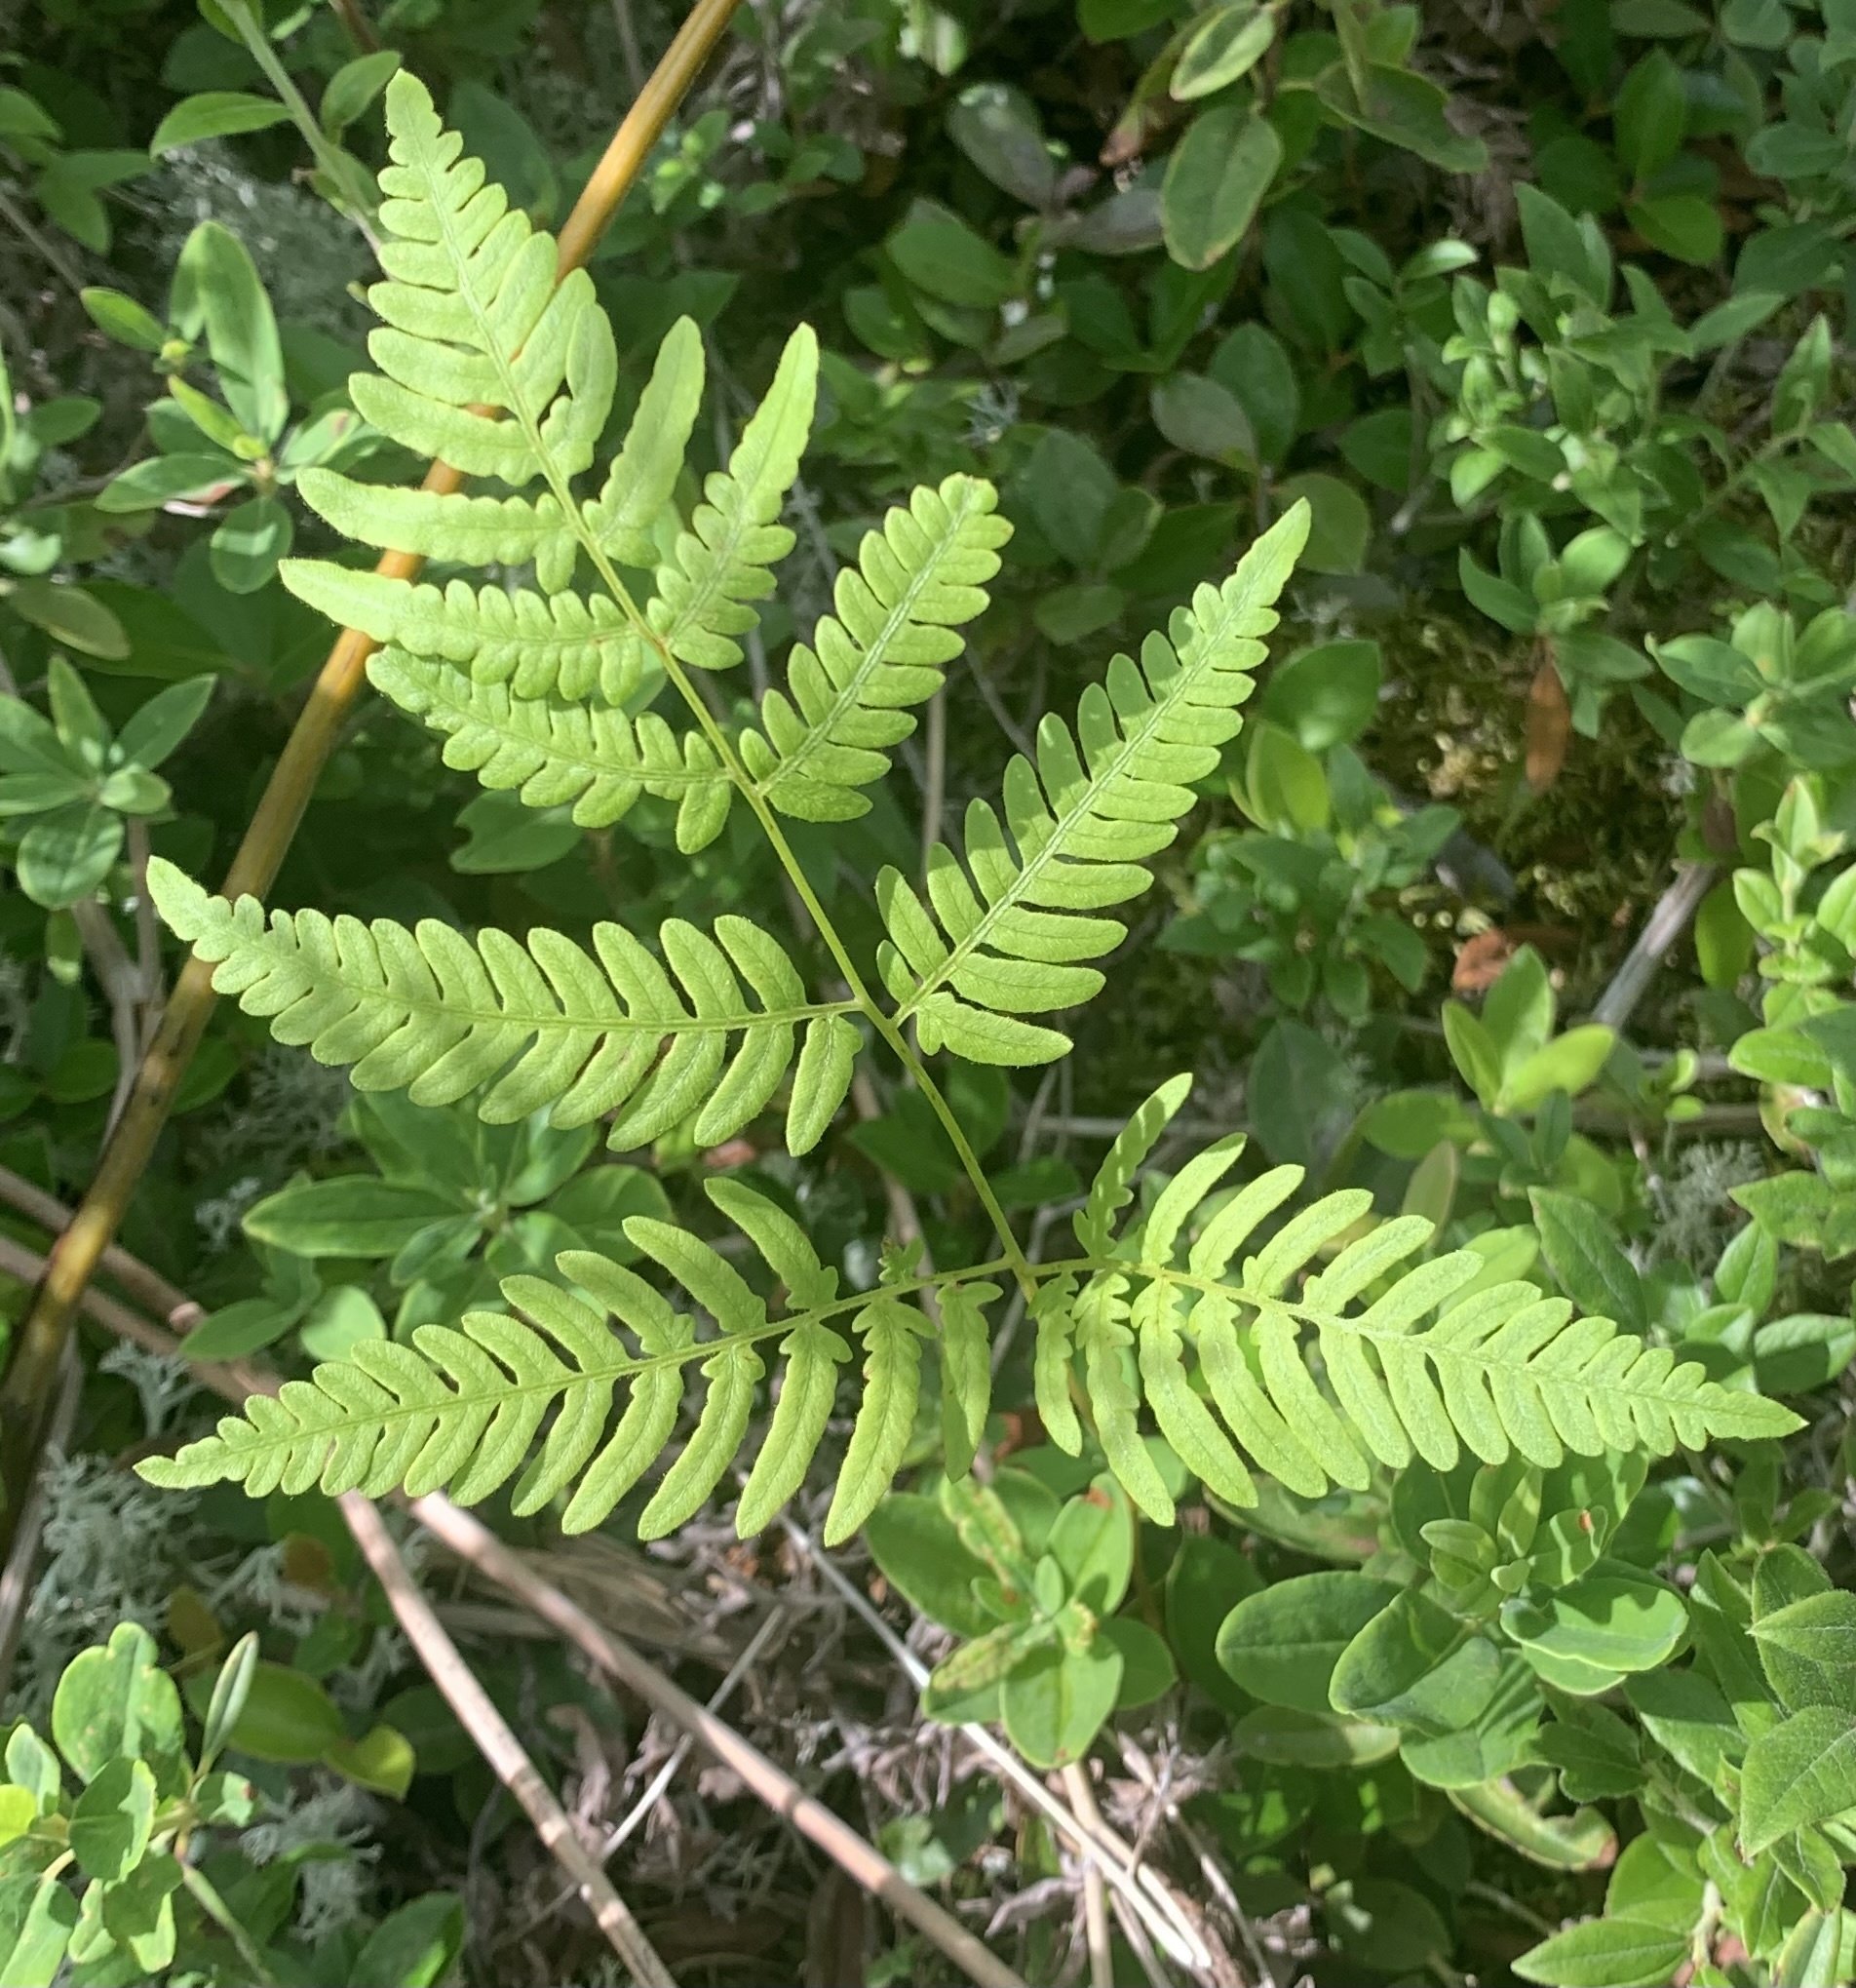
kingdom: Plantae
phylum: Tracheophyta
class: Polypodiopsida
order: Polypodiales
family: Dennstaedtiaceae
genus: Pteridium
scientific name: Pteridium aquilinum
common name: Bracken
